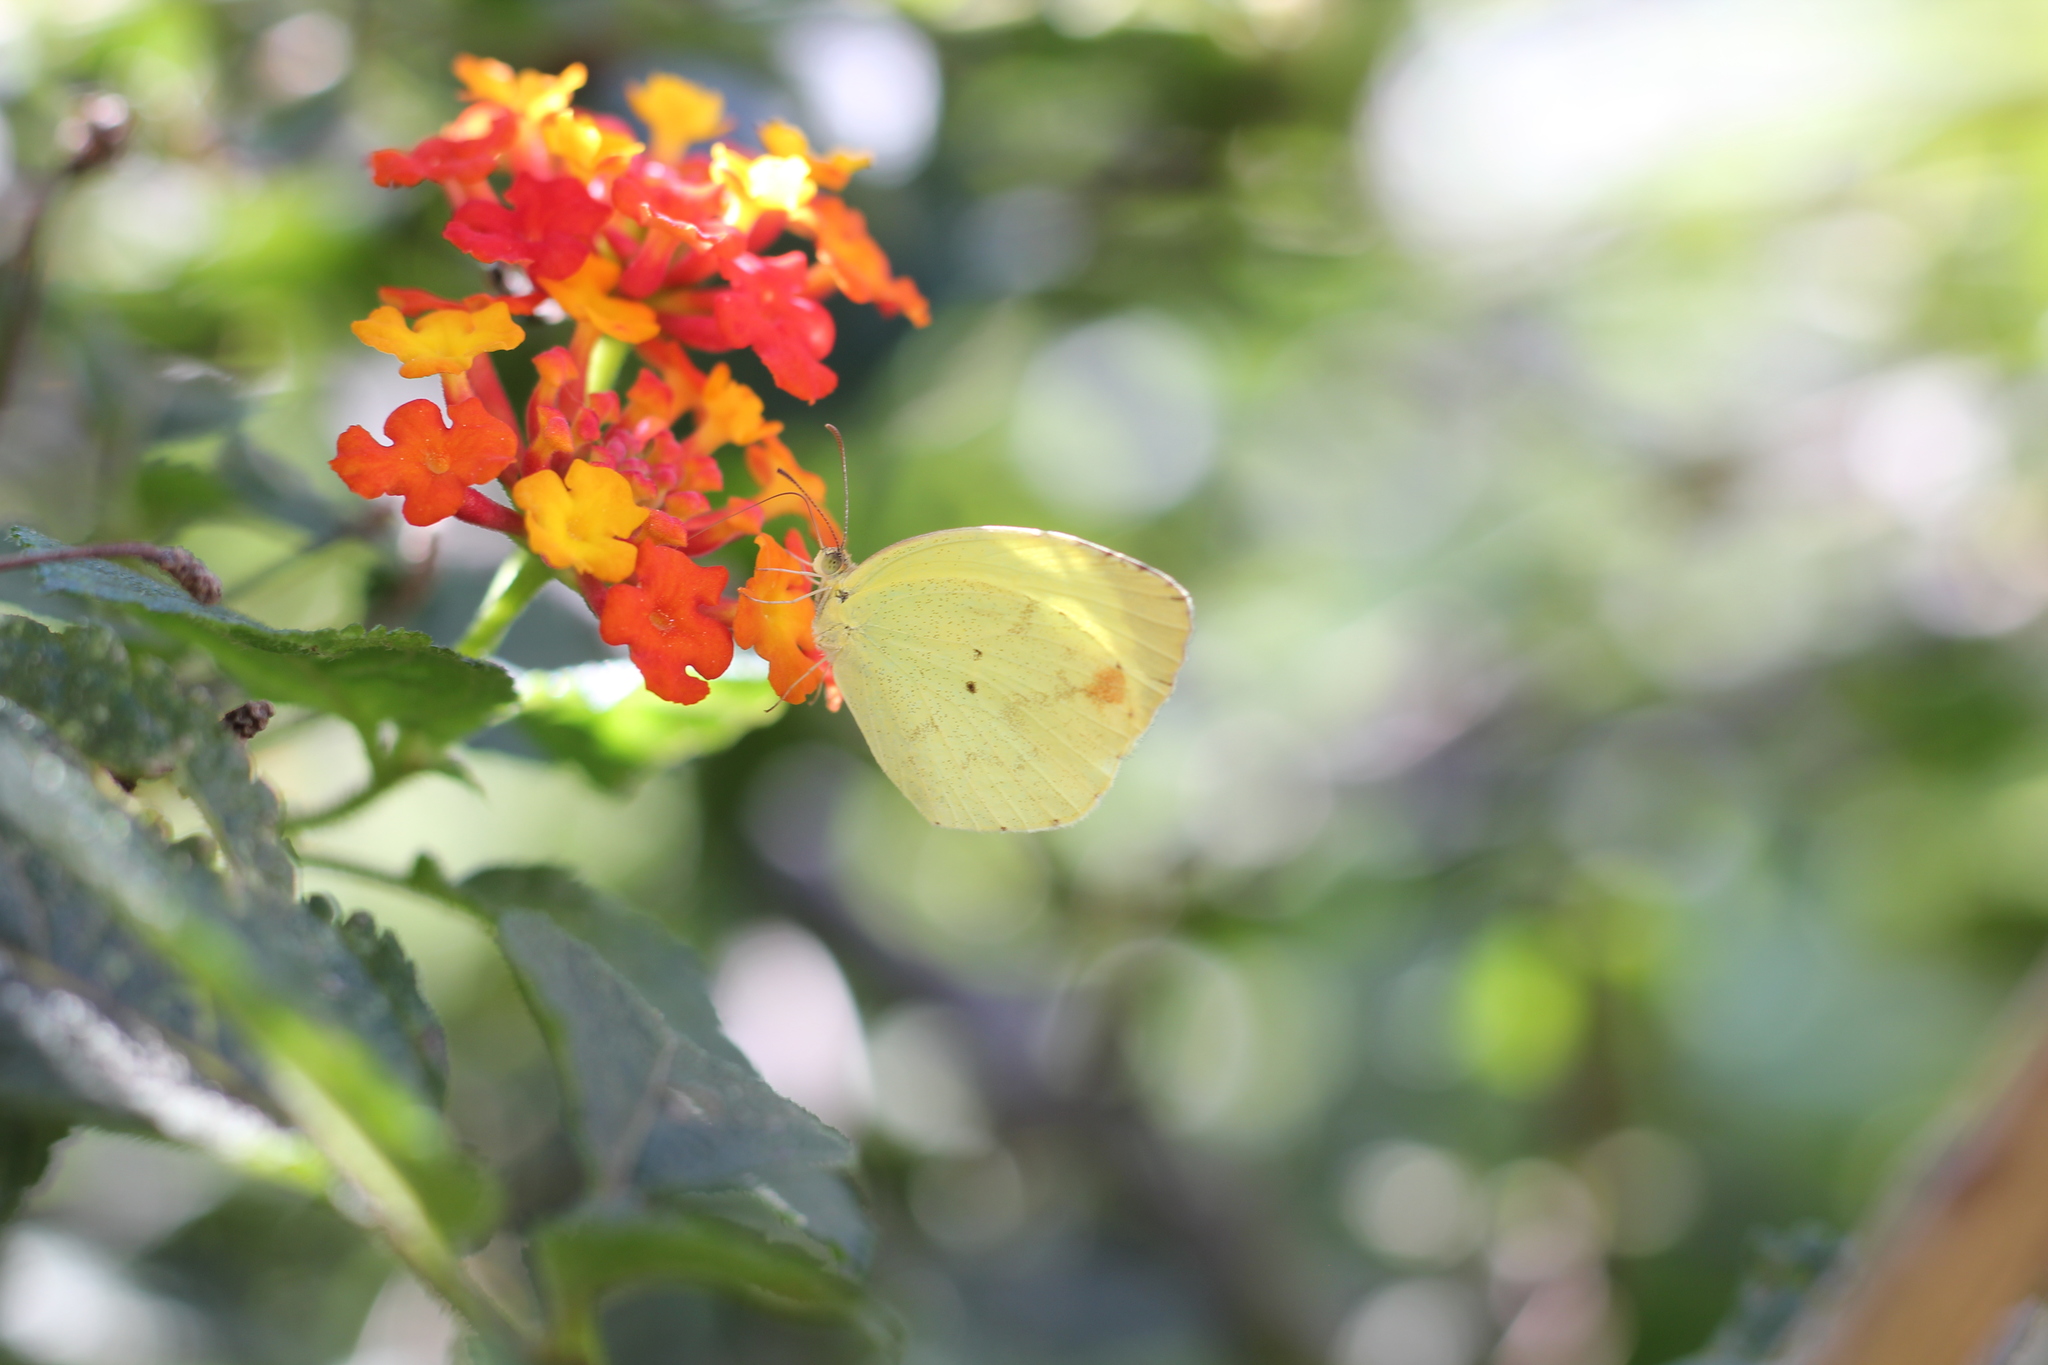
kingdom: Animalia
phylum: Arthropoda
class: Insecta
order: Lepidoptera
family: Pieridae
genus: Pyrisitia
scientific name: Pyrisitia nise
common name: Mimosa yellow
